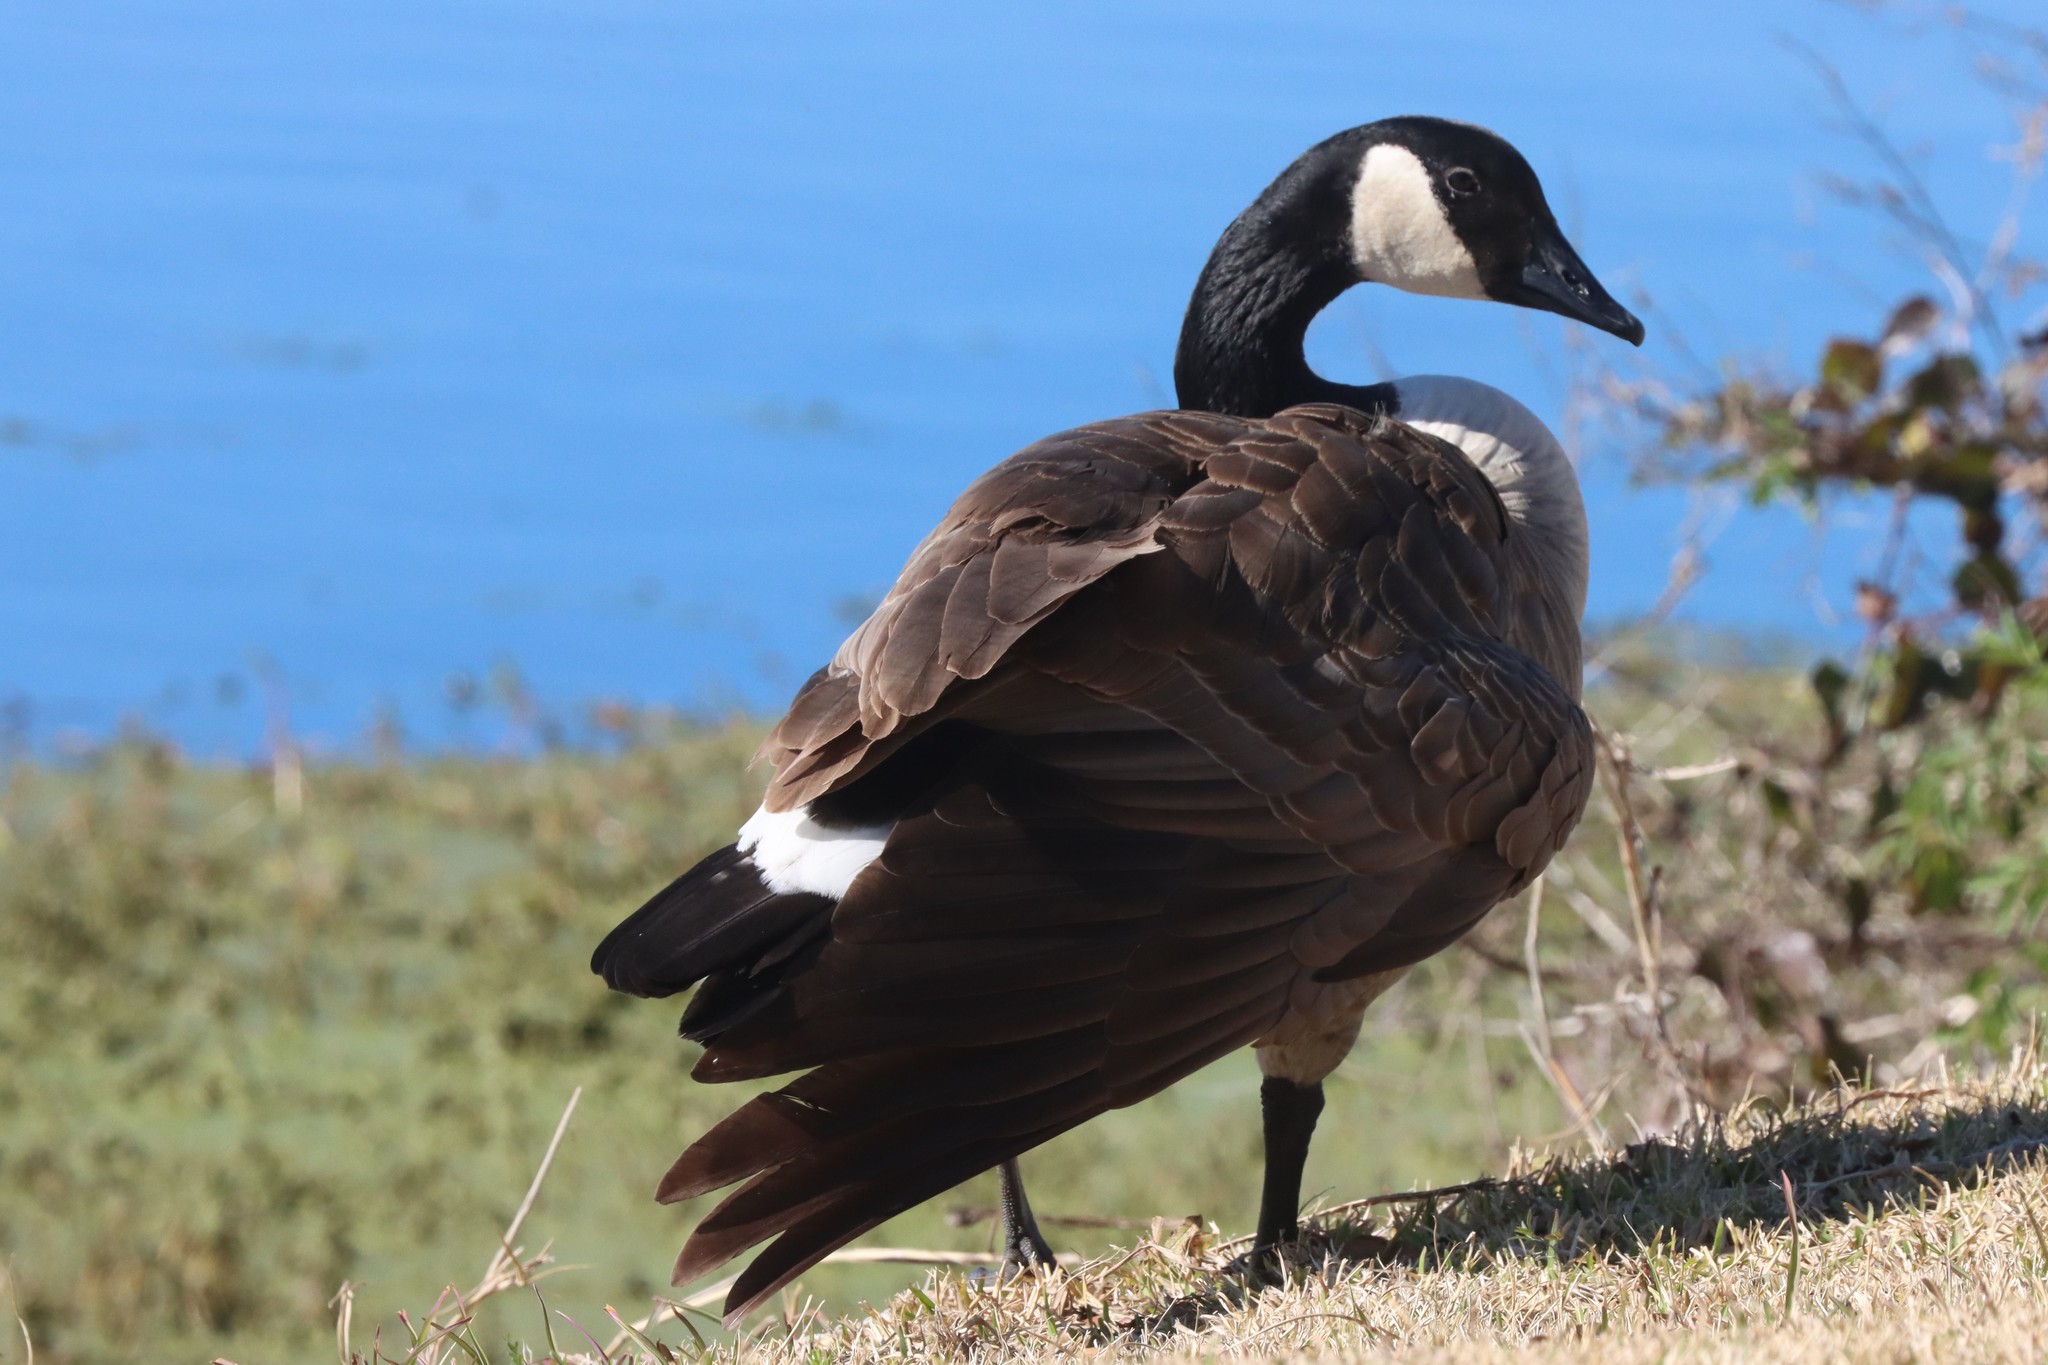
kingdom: Animalia
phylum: Chordata
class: Aves
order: Anseriformes
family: Anatidae
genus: Branta
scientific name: Branta canadensis
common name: Canada goose
